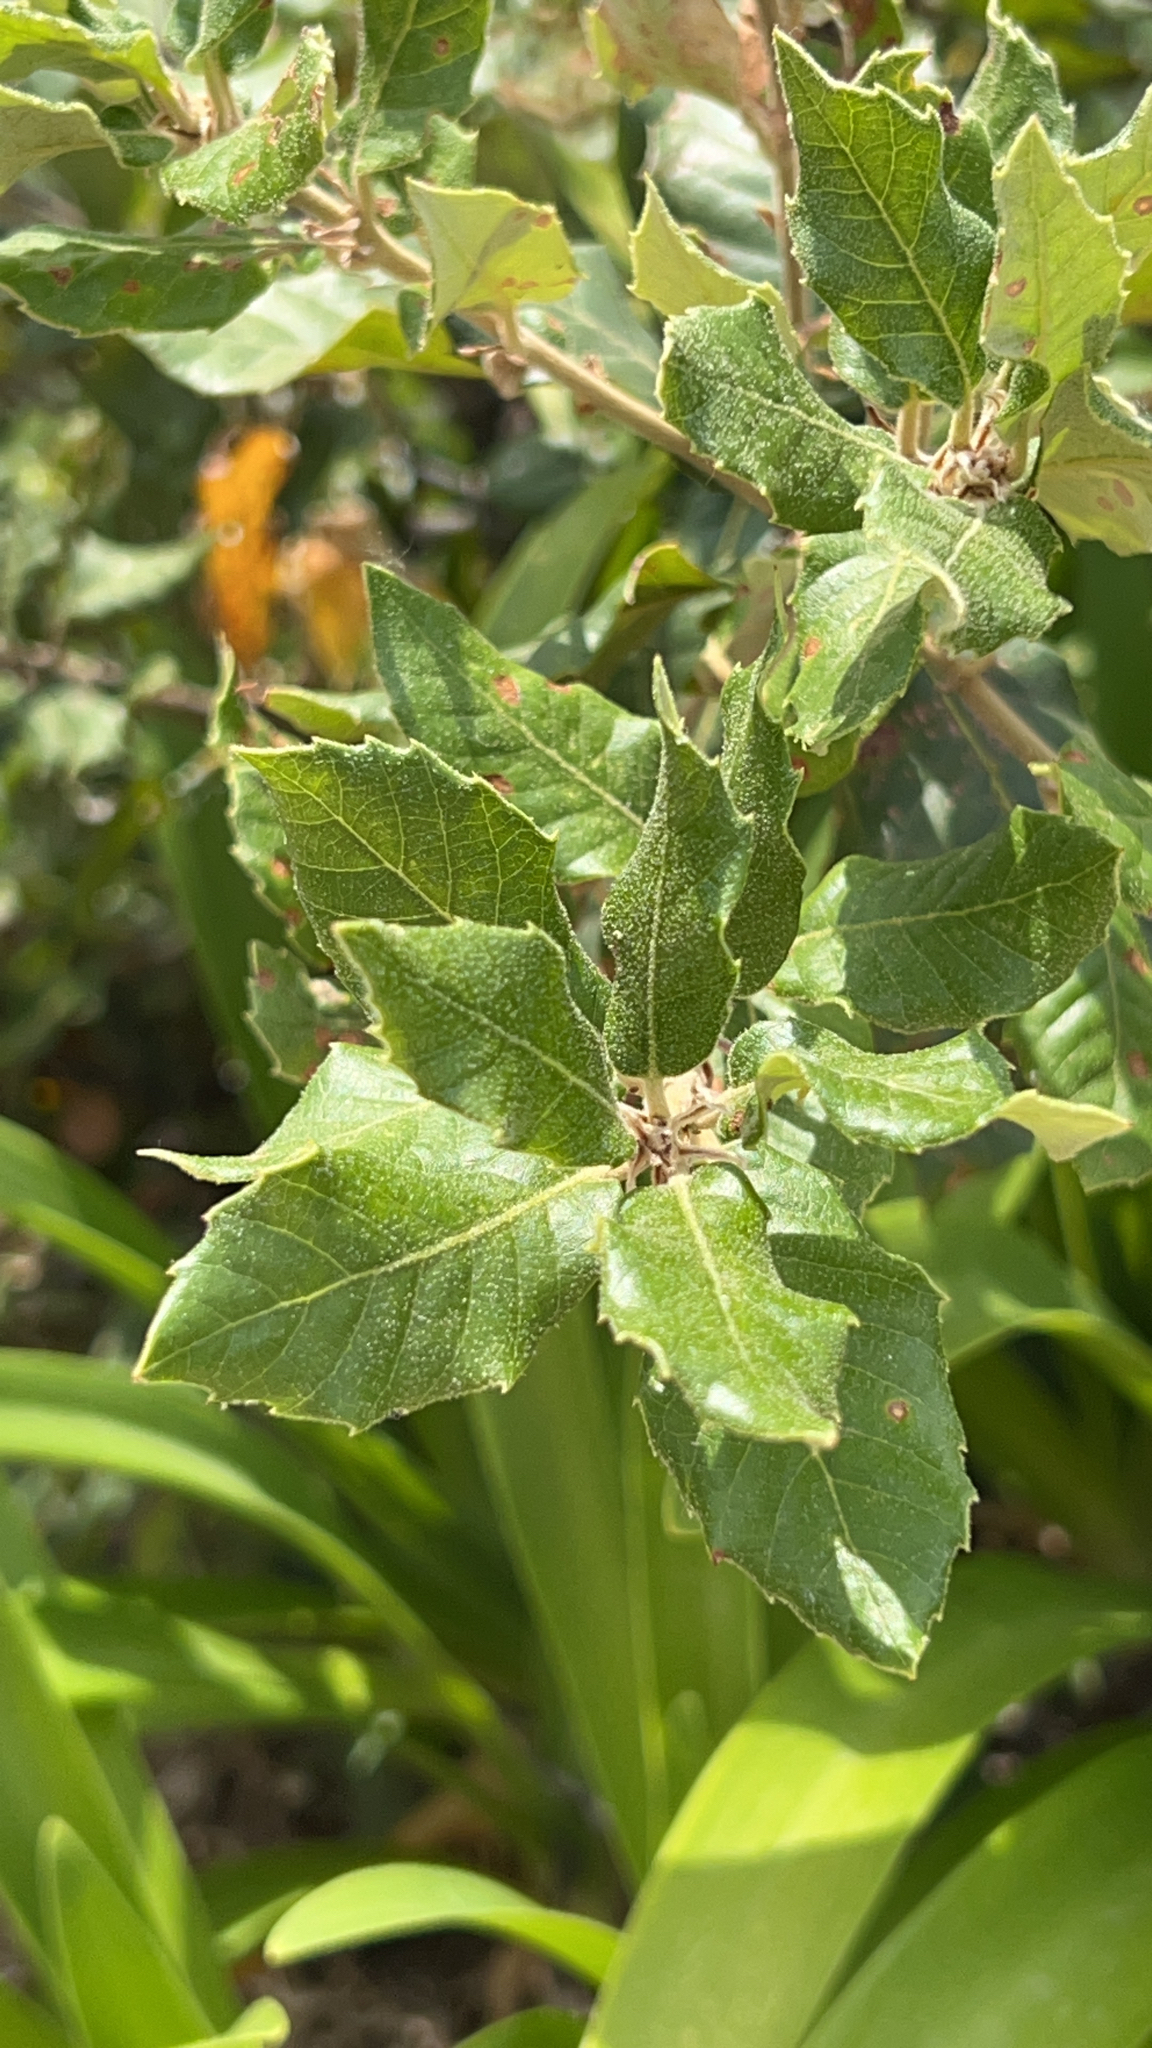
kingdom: Plantae
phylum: Tracheophyta
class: Magnoliopsida
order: Fagales
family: Fagaceae
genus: Quercus
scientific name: Quercus ilex
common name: Evergreen oak
